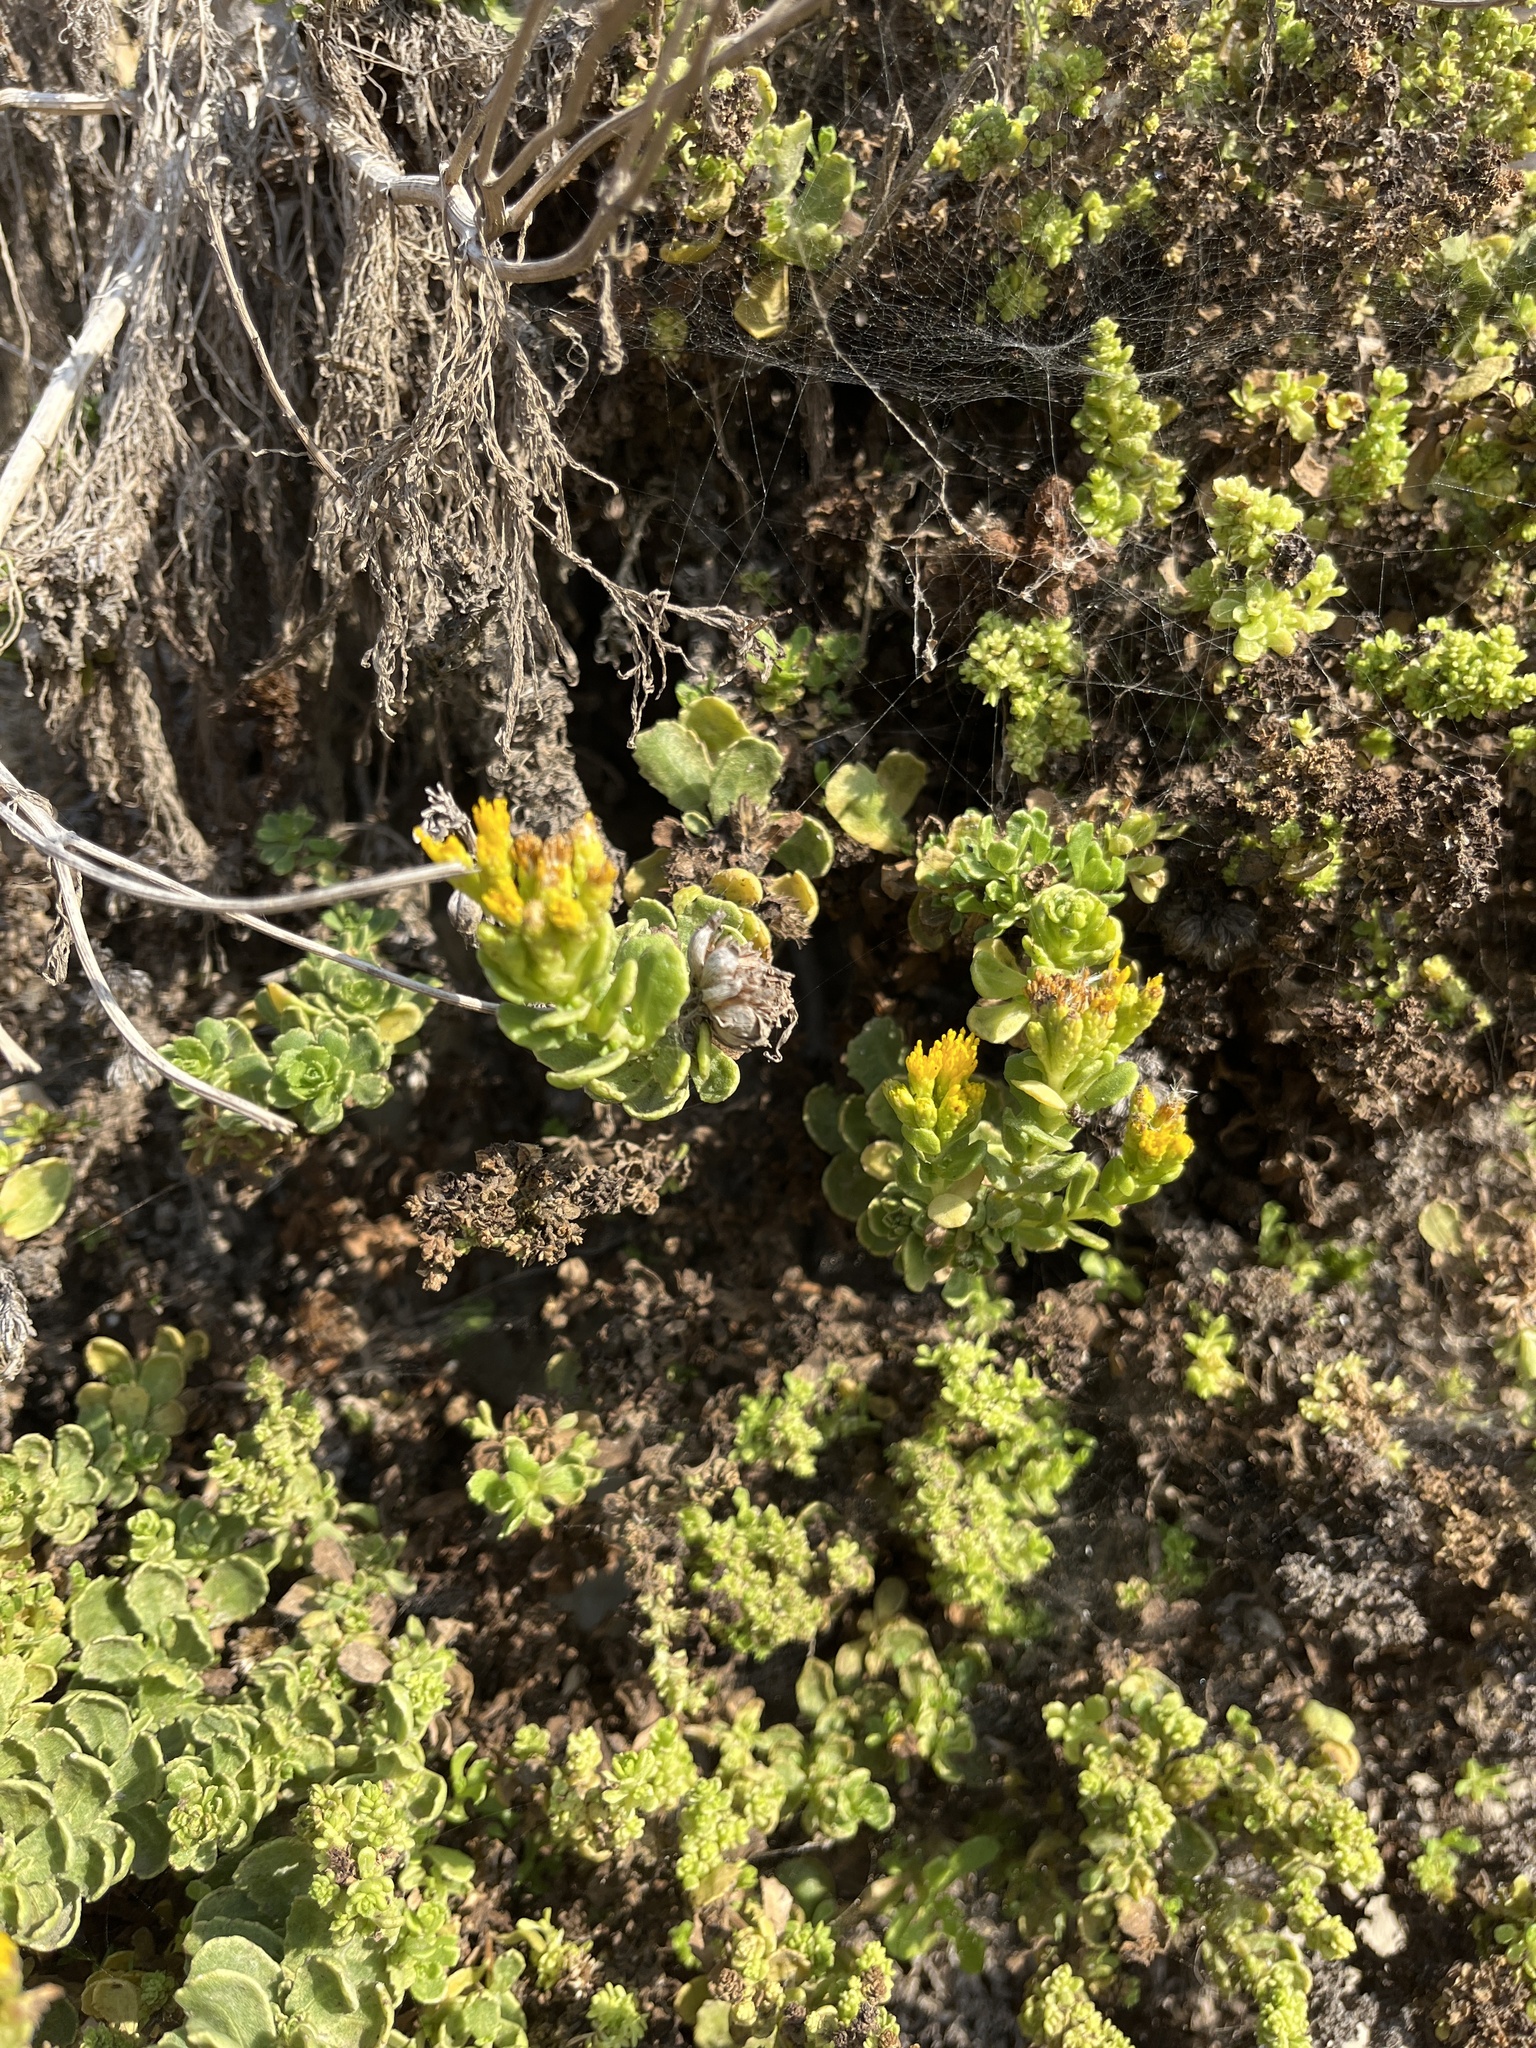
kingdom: Plantae
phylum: Tracheophyta
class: Magnoliopsida
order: Asterales
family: Asteraceae
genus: Isocoma
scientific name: Isocoma menziesii
